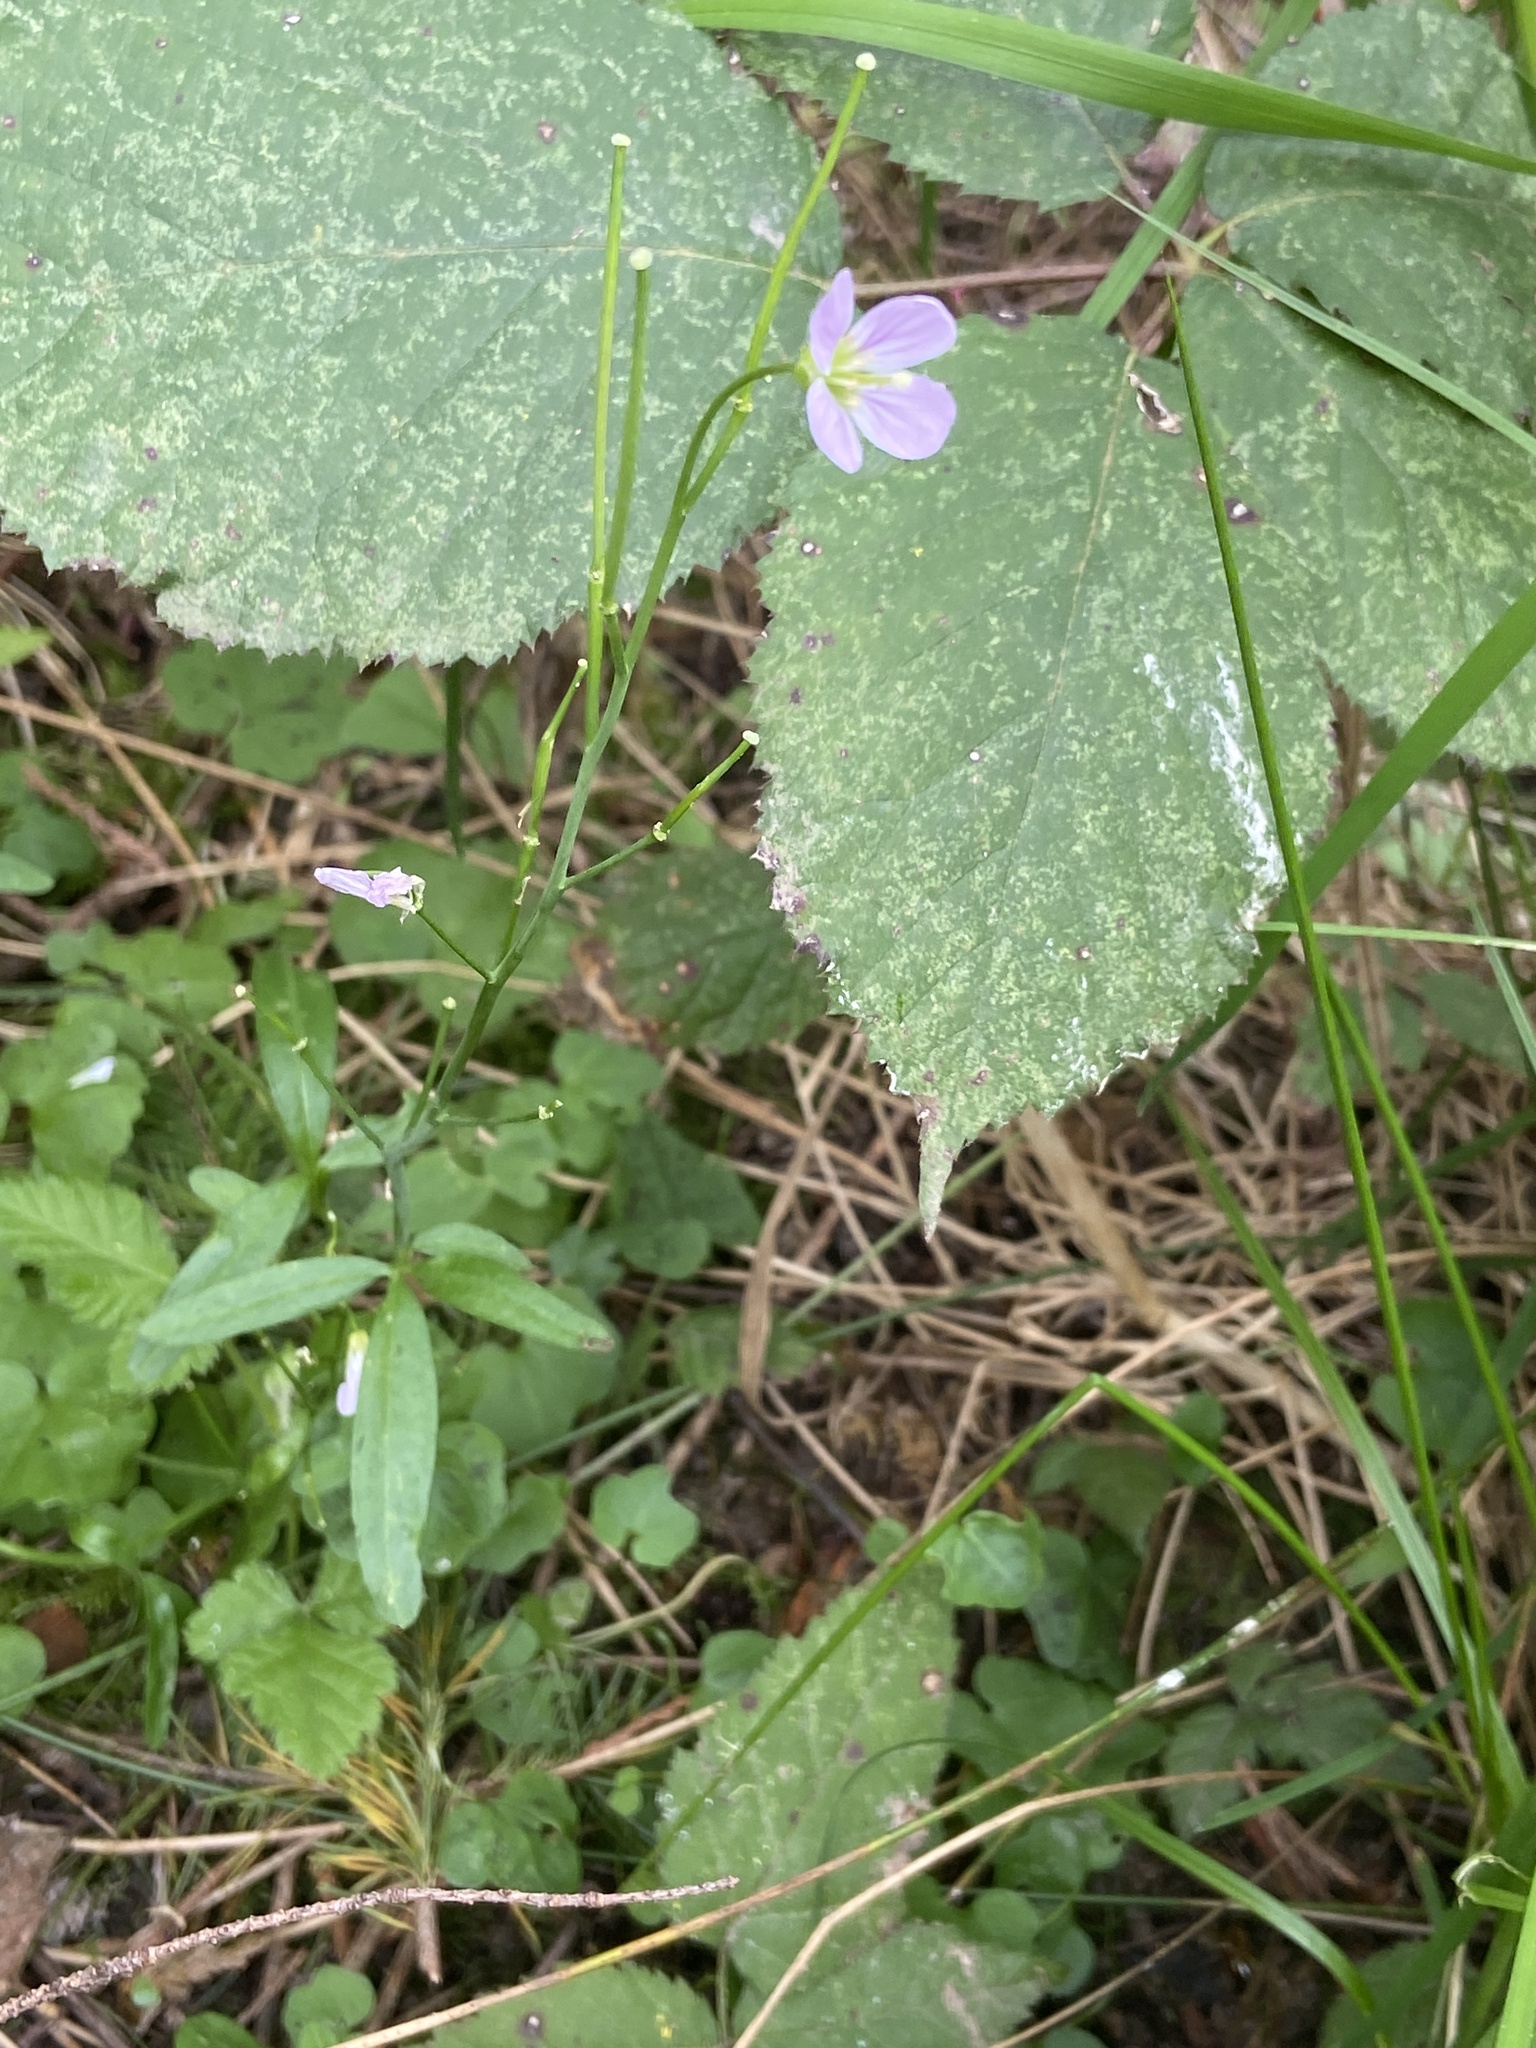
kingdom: Plantae
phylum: Tracheophyta
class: Magnoliopsida
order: Brassicales
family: Brassicaceae
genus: Cardamine
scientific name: Cardamine nuttallii
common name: Nuttall's toothwort
